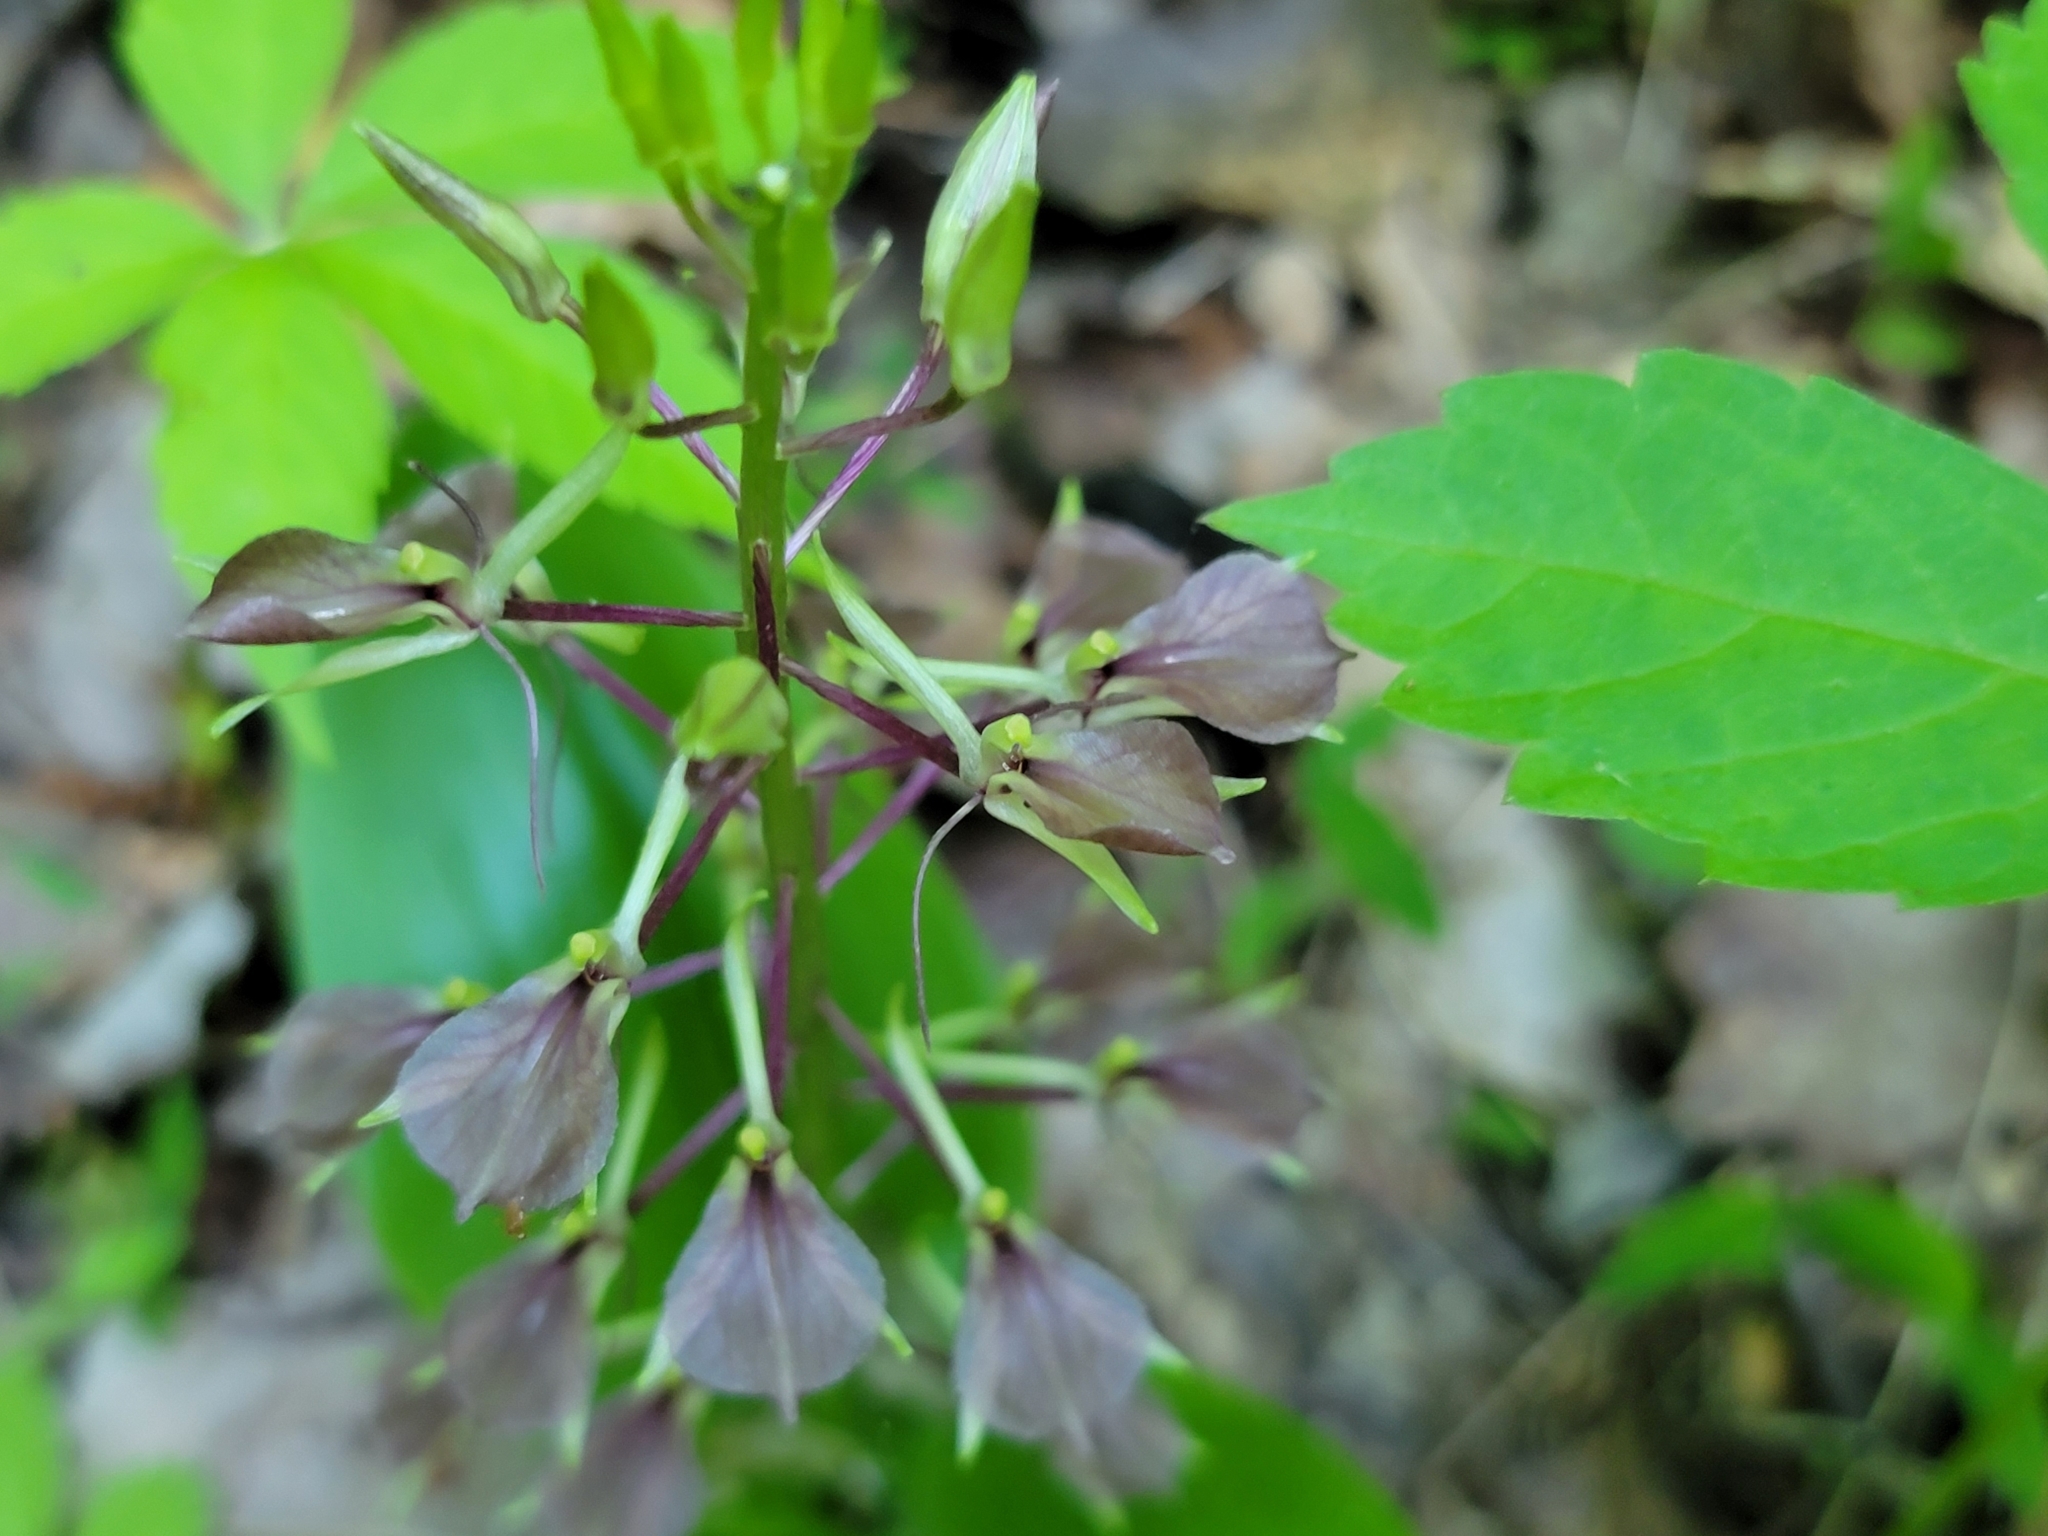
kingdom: Plantae
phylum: Tracheophyta
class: Liliopsida
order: Asparagales
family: Orchidaceae
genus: Liparis
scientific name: Liparis liliifolia
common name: Brown wide-lip orchid
